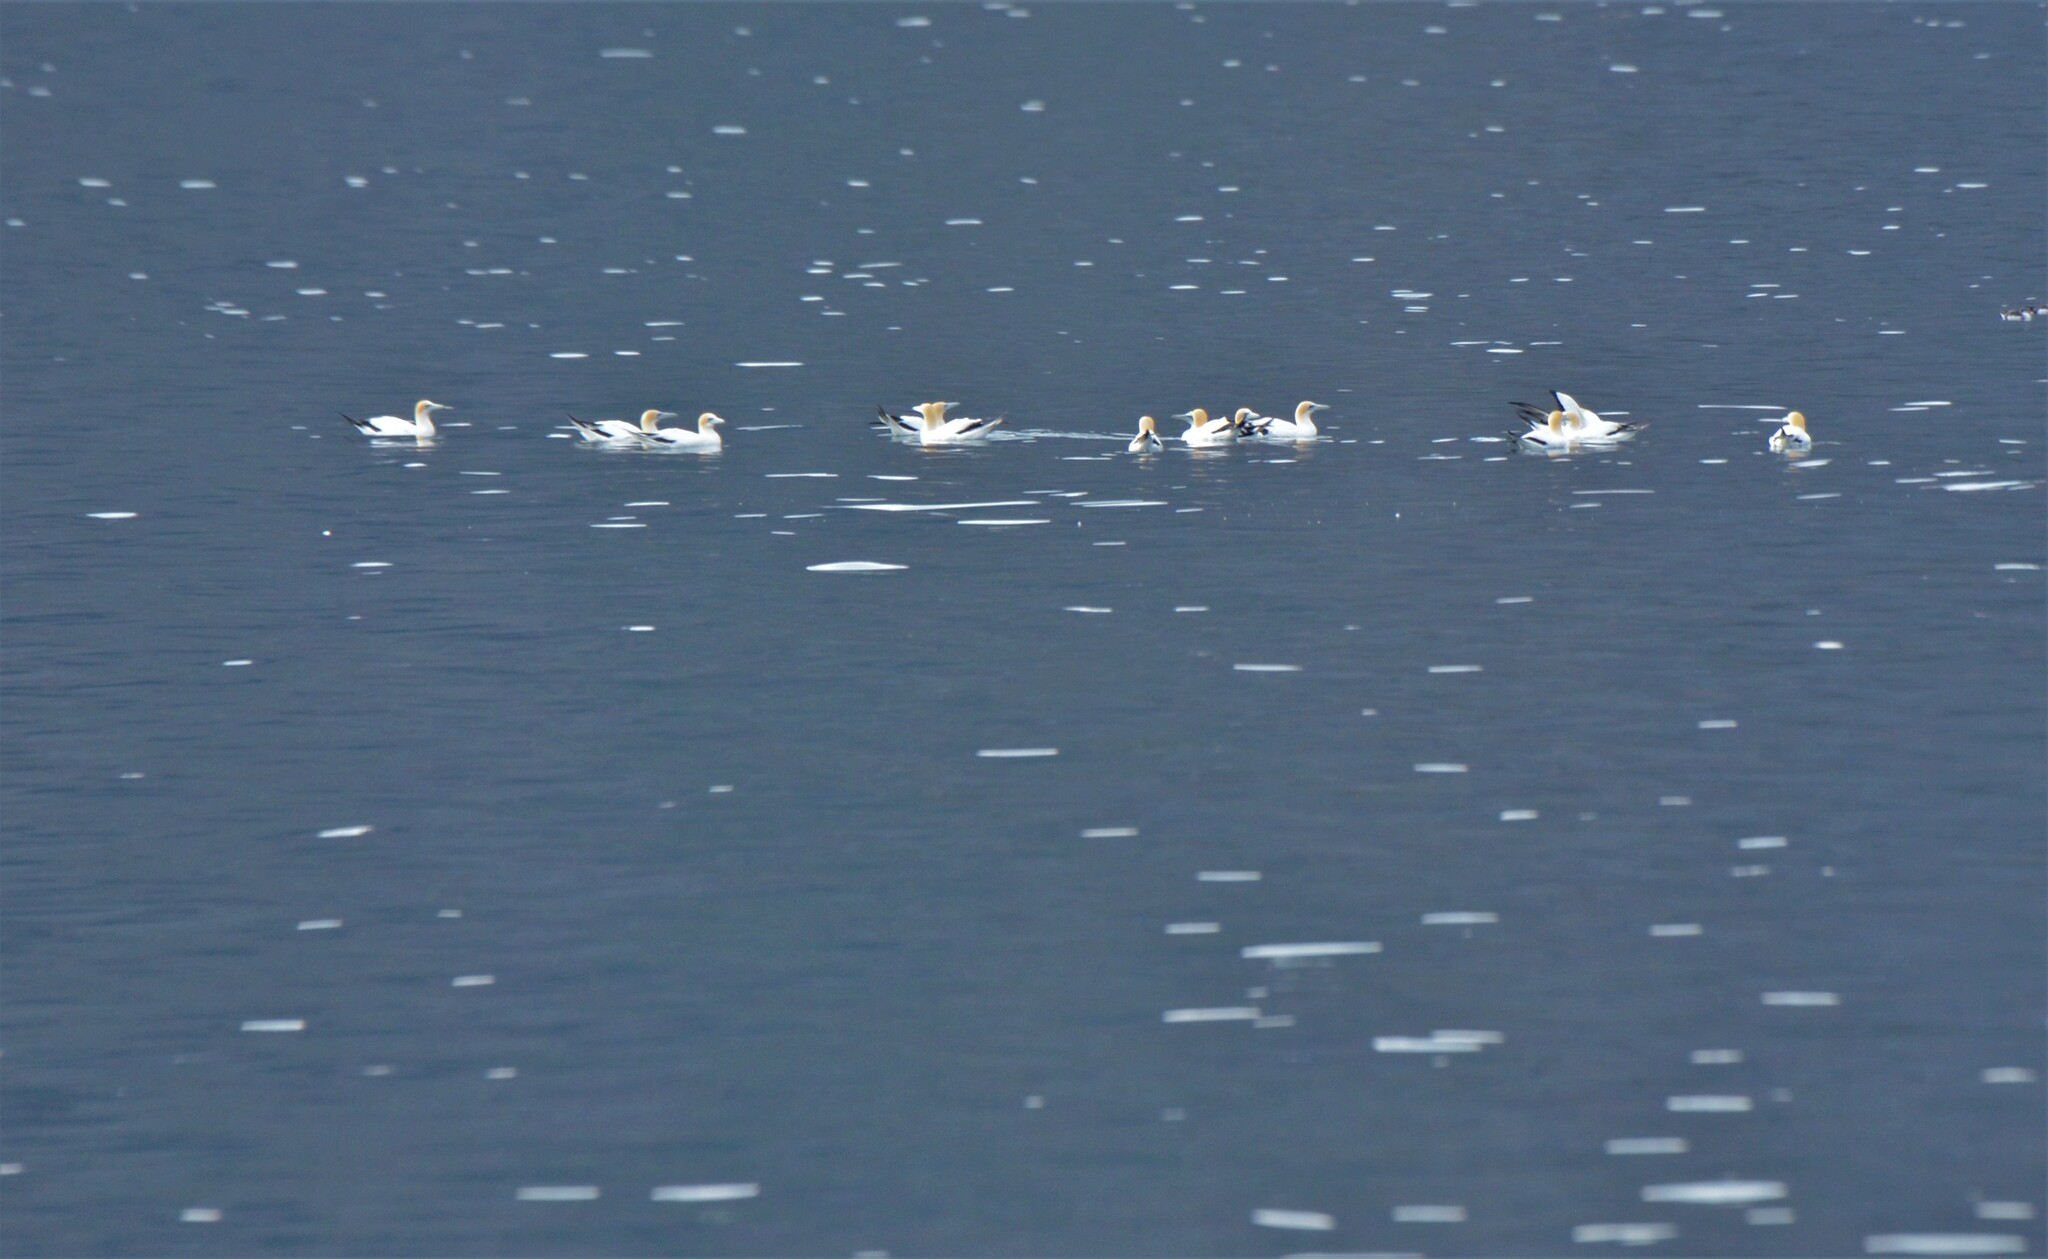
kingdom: Animalia
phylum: Chordata
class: Aves
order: Suliformes
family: Sulidae
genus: Morus
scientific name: Morus serrator
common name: Australasian gannet
